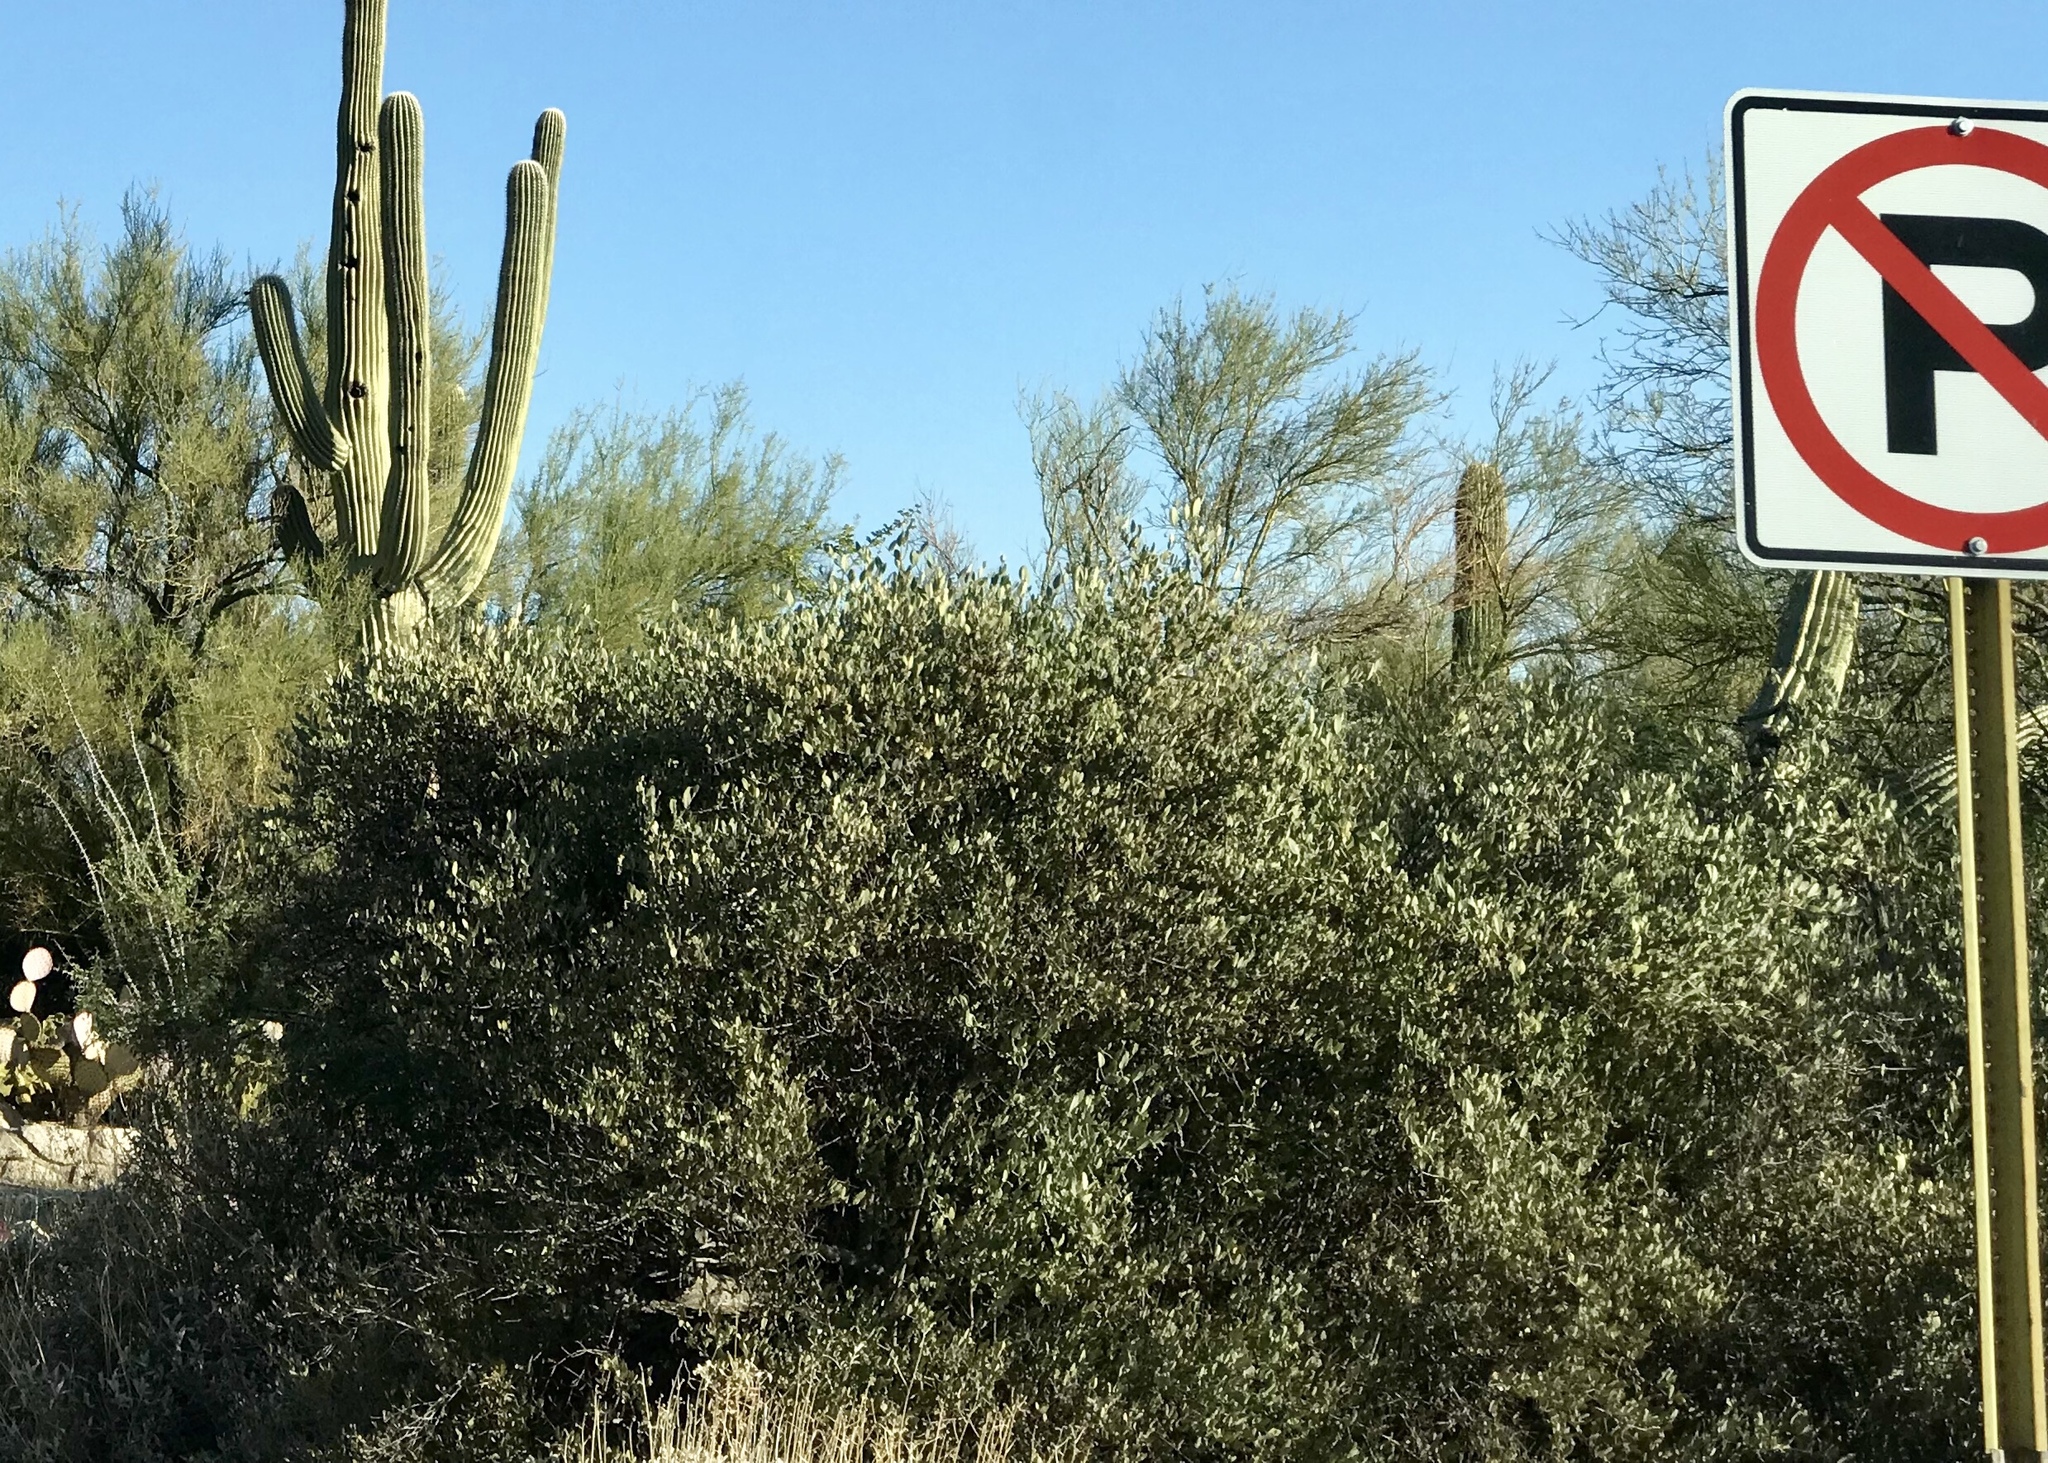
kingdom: Plantae
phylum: Tracheophyta
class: Magnoliopsida
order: Caryophyllales
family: Simmondsiaceae
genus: Simmondsia
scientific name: Simmondsia chinensis
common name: Jojoba
